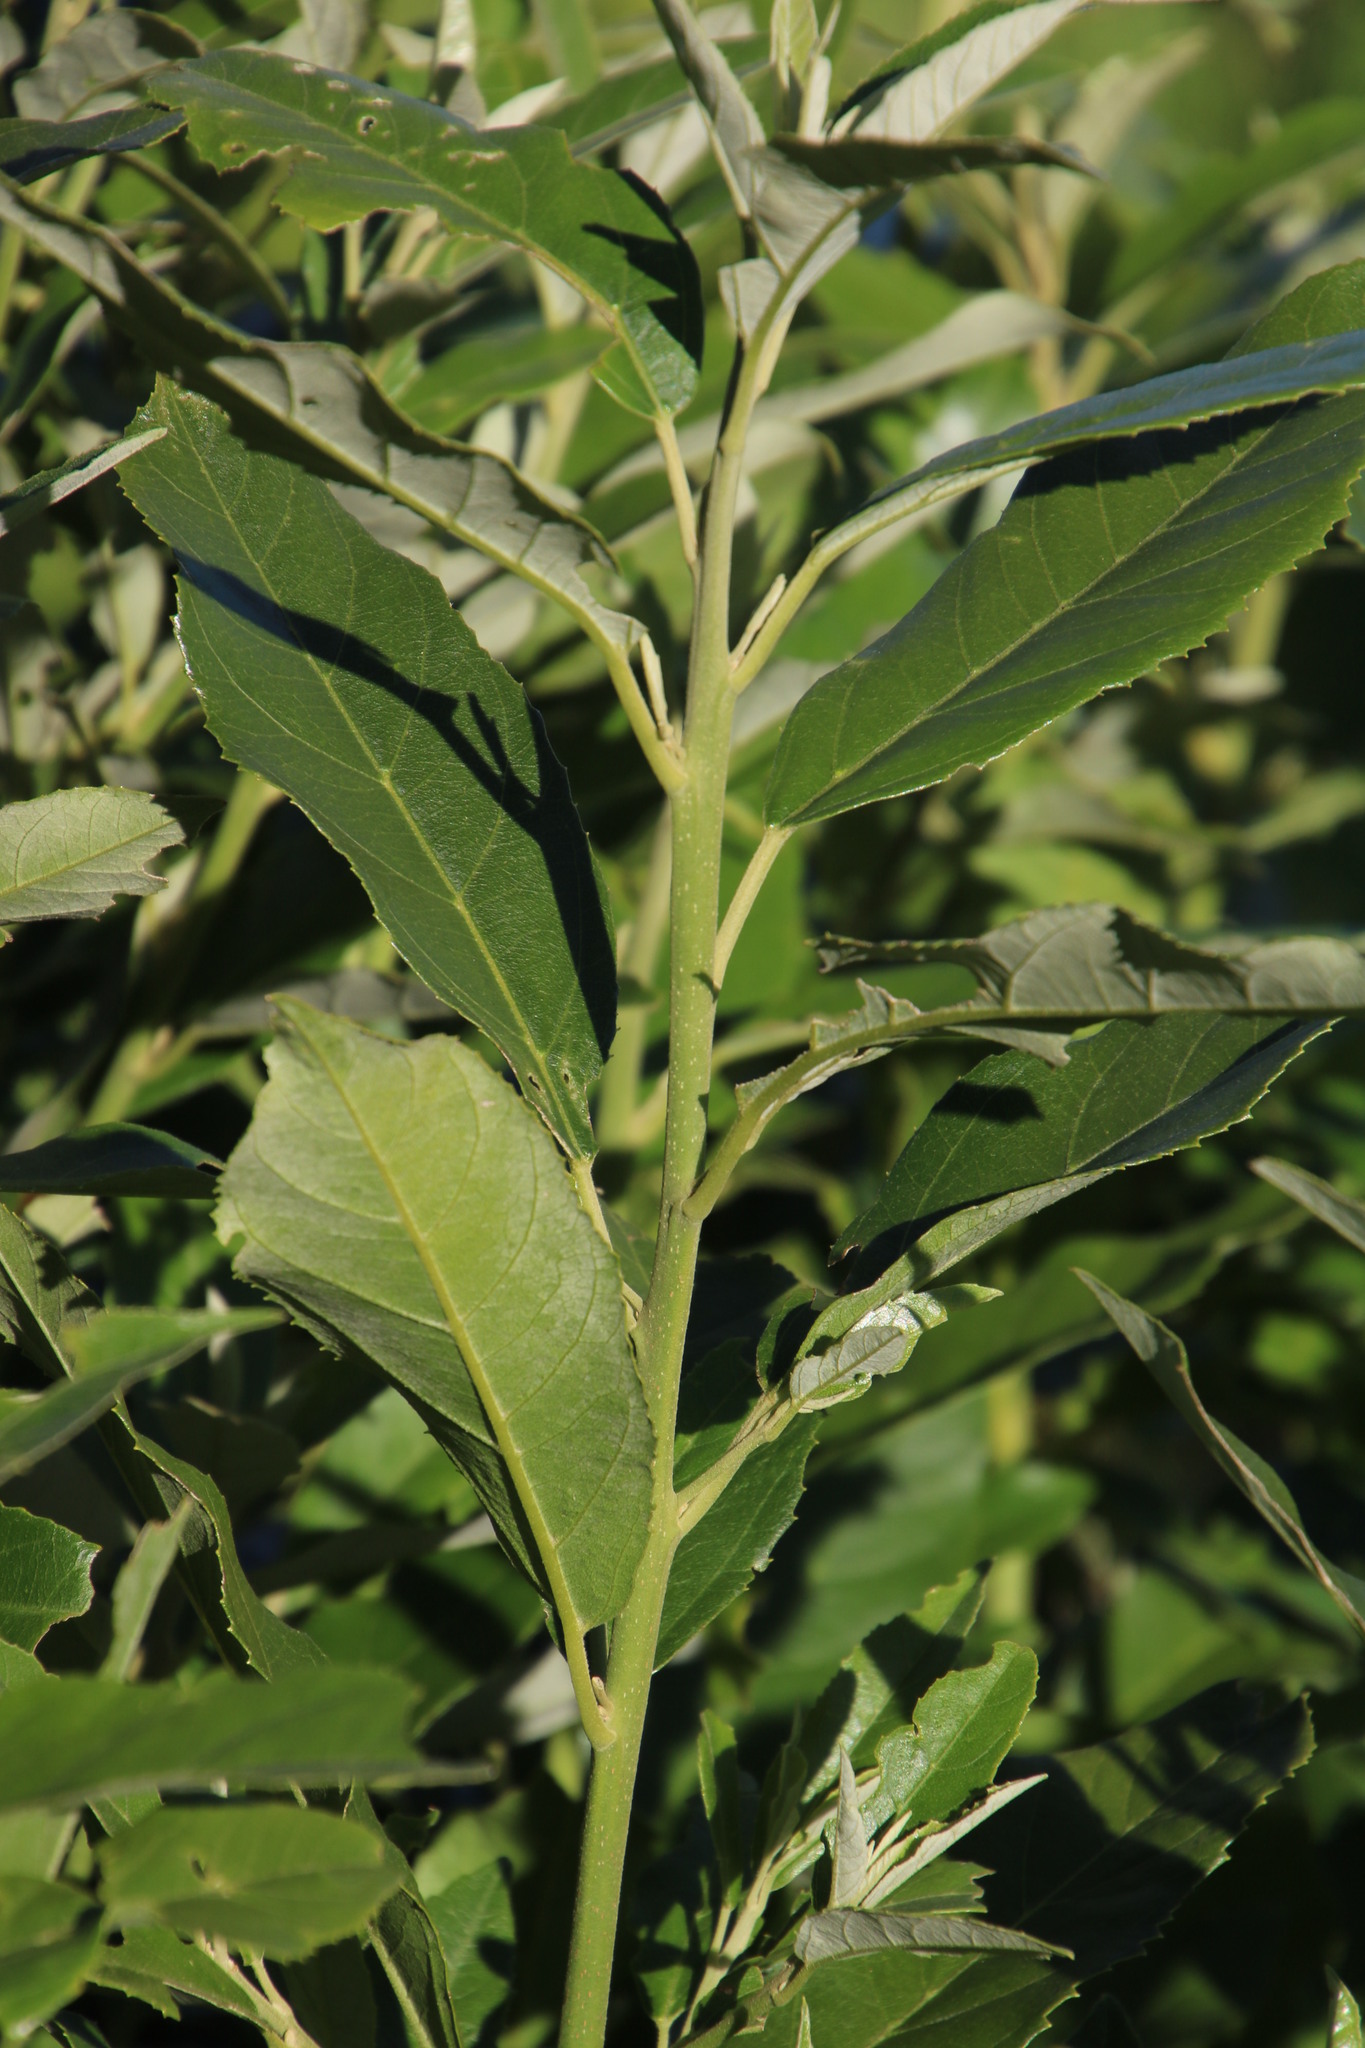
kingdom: Plantae
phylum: Tracheophyta
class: Magnoliopsida
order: Malpighiales
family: Achariaceae
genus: Kiggelaria
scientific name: Kiggelaria africana
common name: Wild peach
